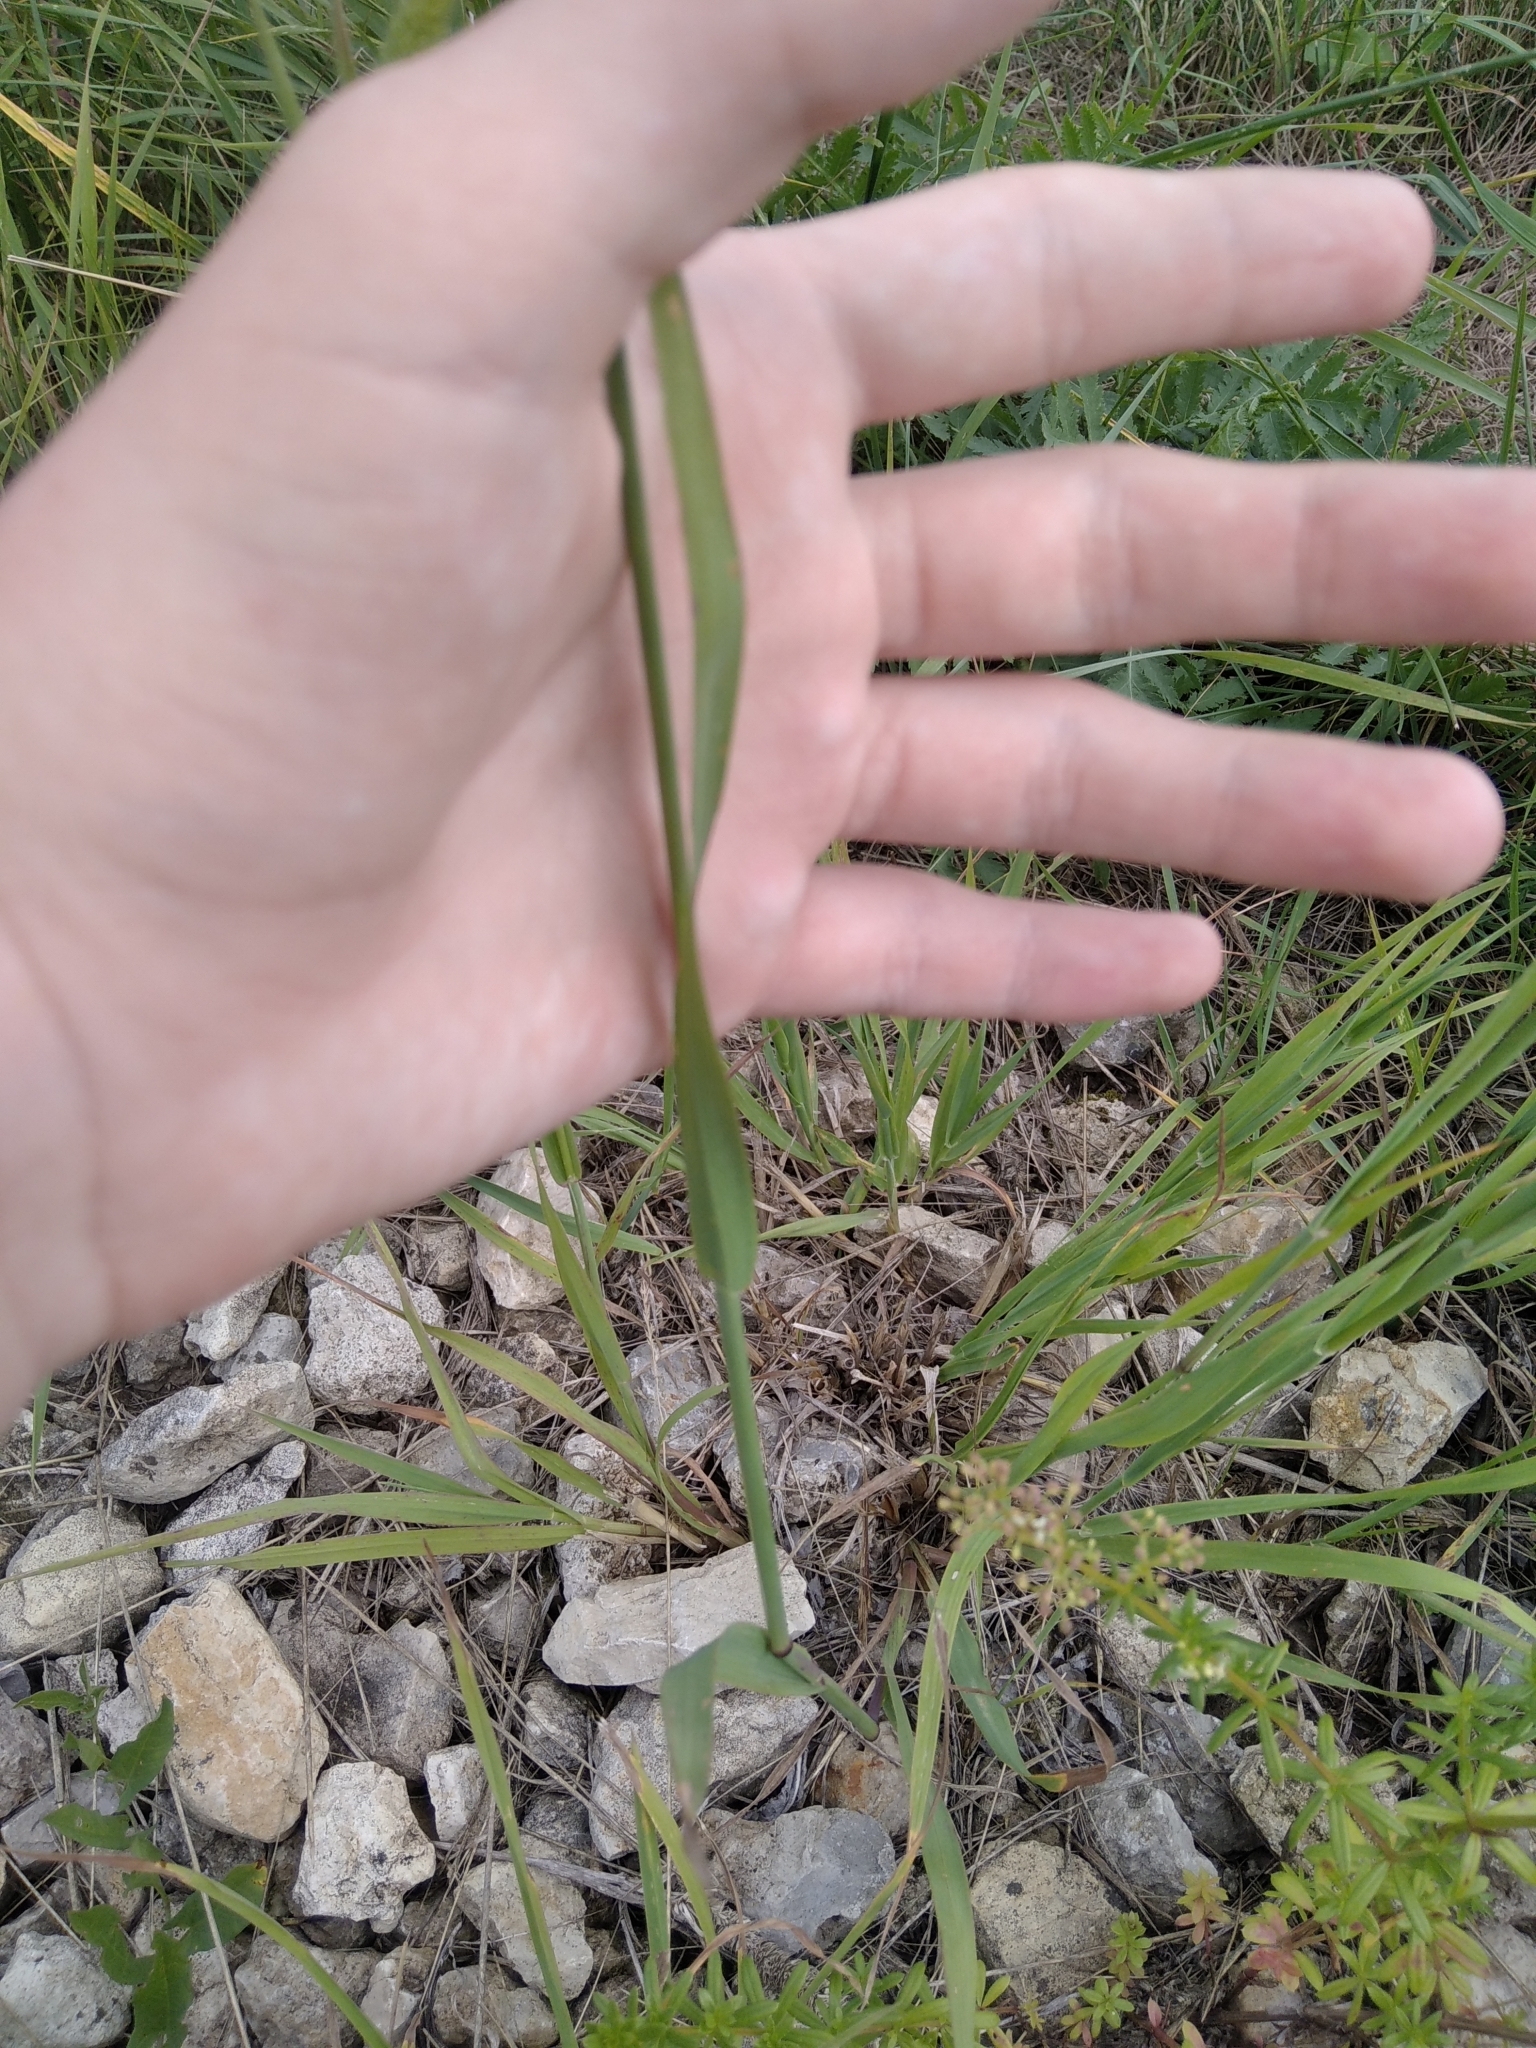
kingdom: Plantae
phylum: Tracheophyta
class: Liliopsida
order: Poales
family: Poaceae
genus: Phleum
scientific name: Phleum pratense
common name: Timothy grass
